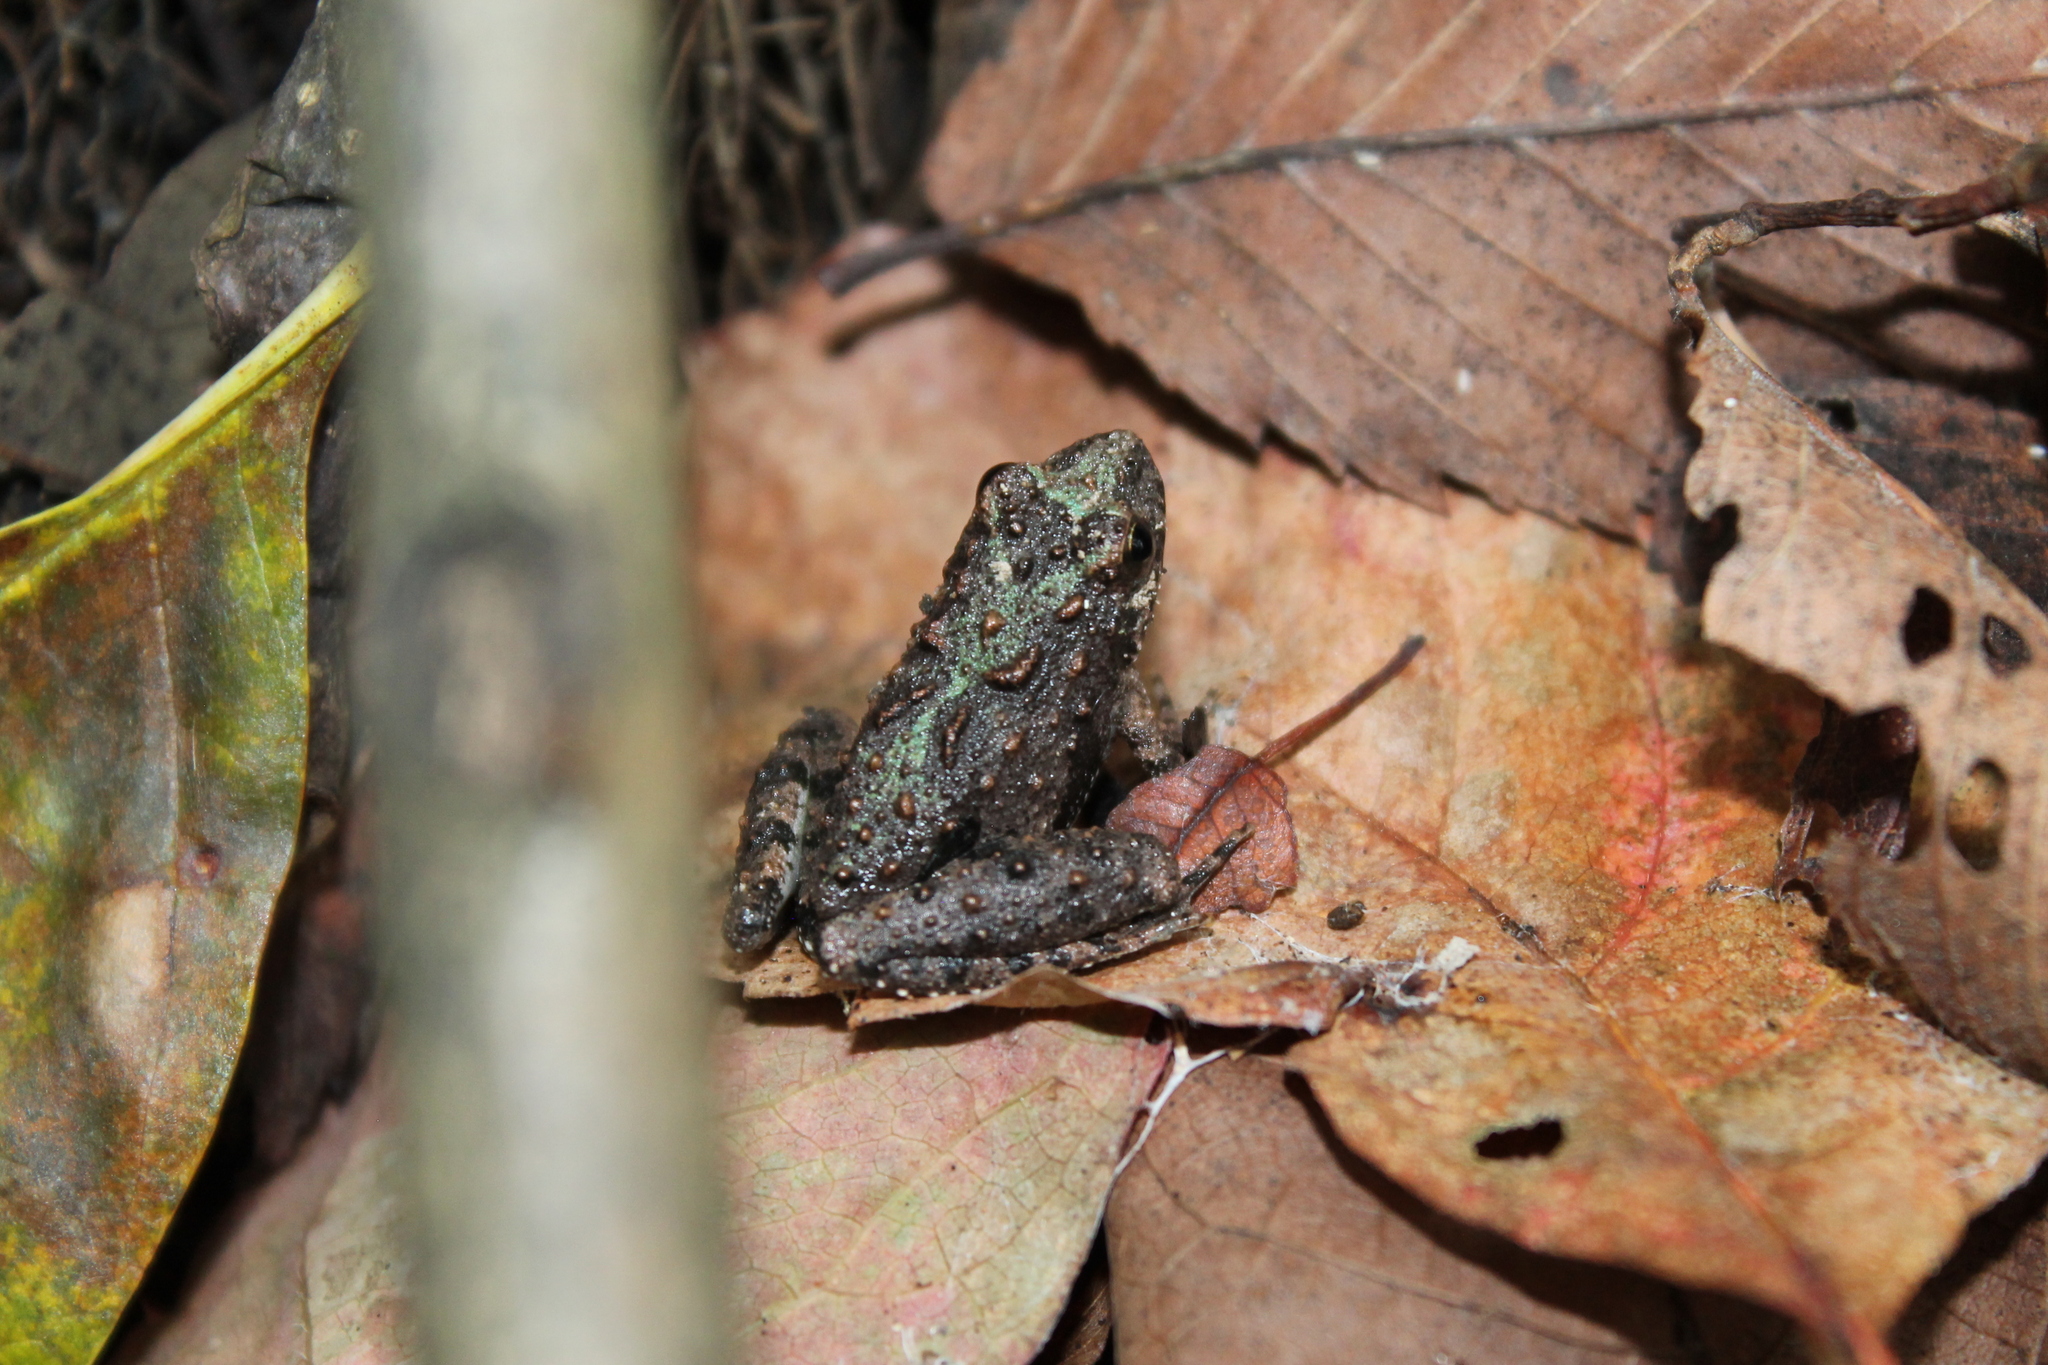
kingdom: Animalia
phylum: Chordata
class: Amphibia
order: Anura
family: Hylidae
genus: Acris
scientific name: Acris blanchardi
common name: Blanchard's cricket frog
